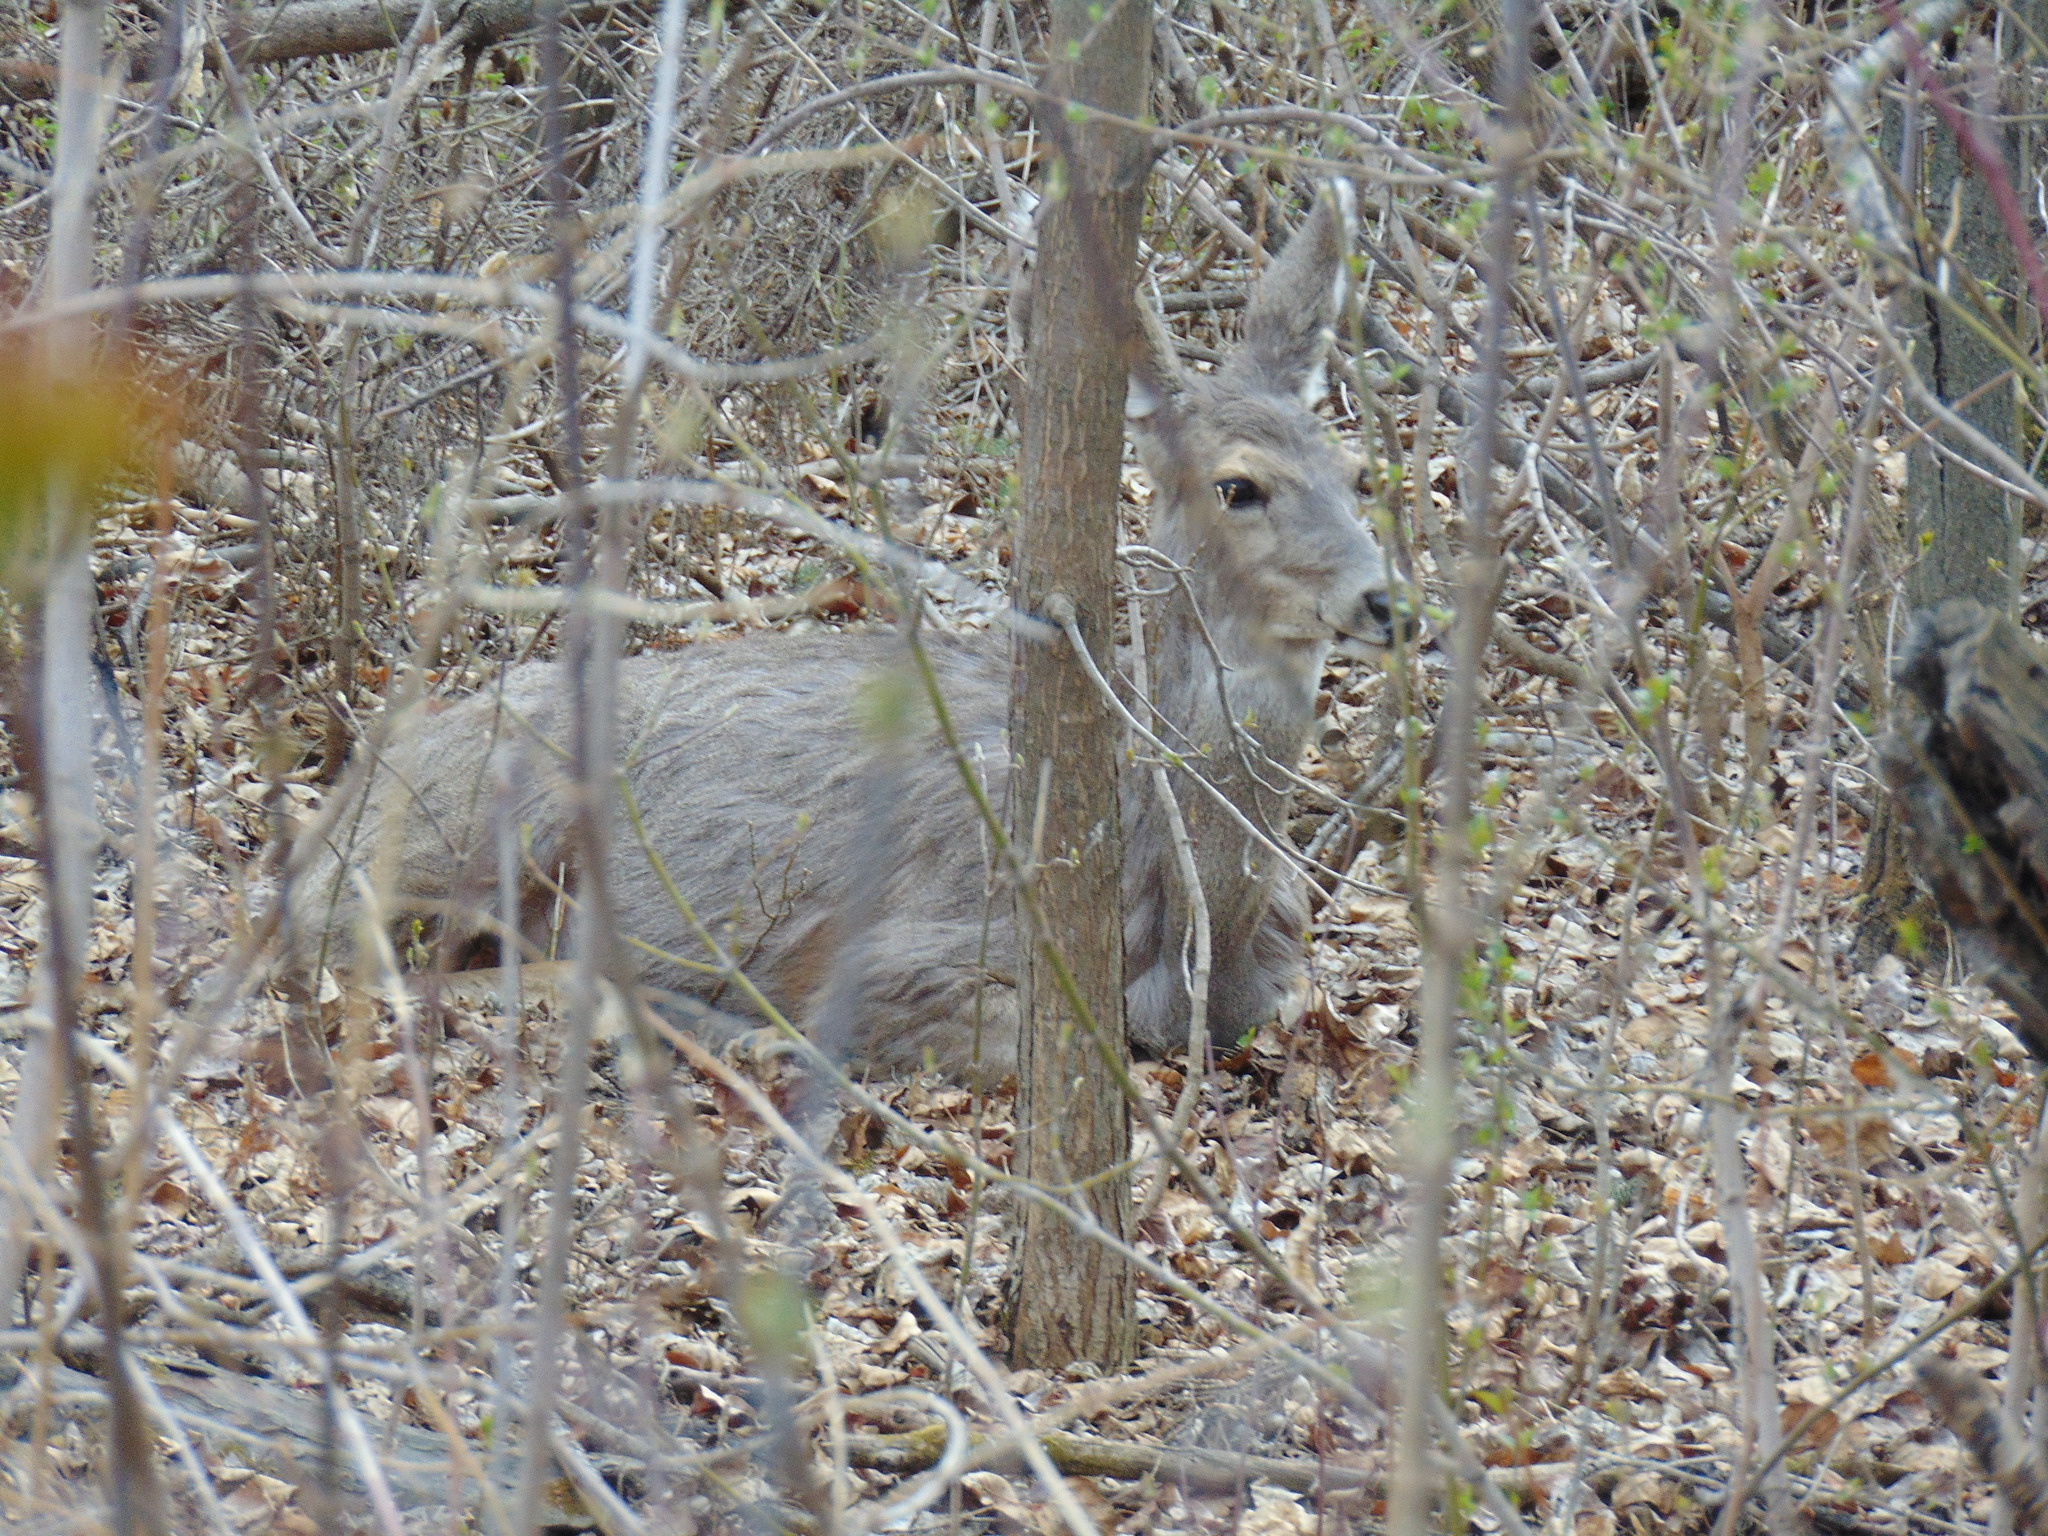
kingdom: Animalia
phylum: Chordata
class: Mammalia
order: Artiodactyla
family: Cervidae
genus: Odocoileus
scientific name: Odocoileus hemionus
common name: Mule deer
